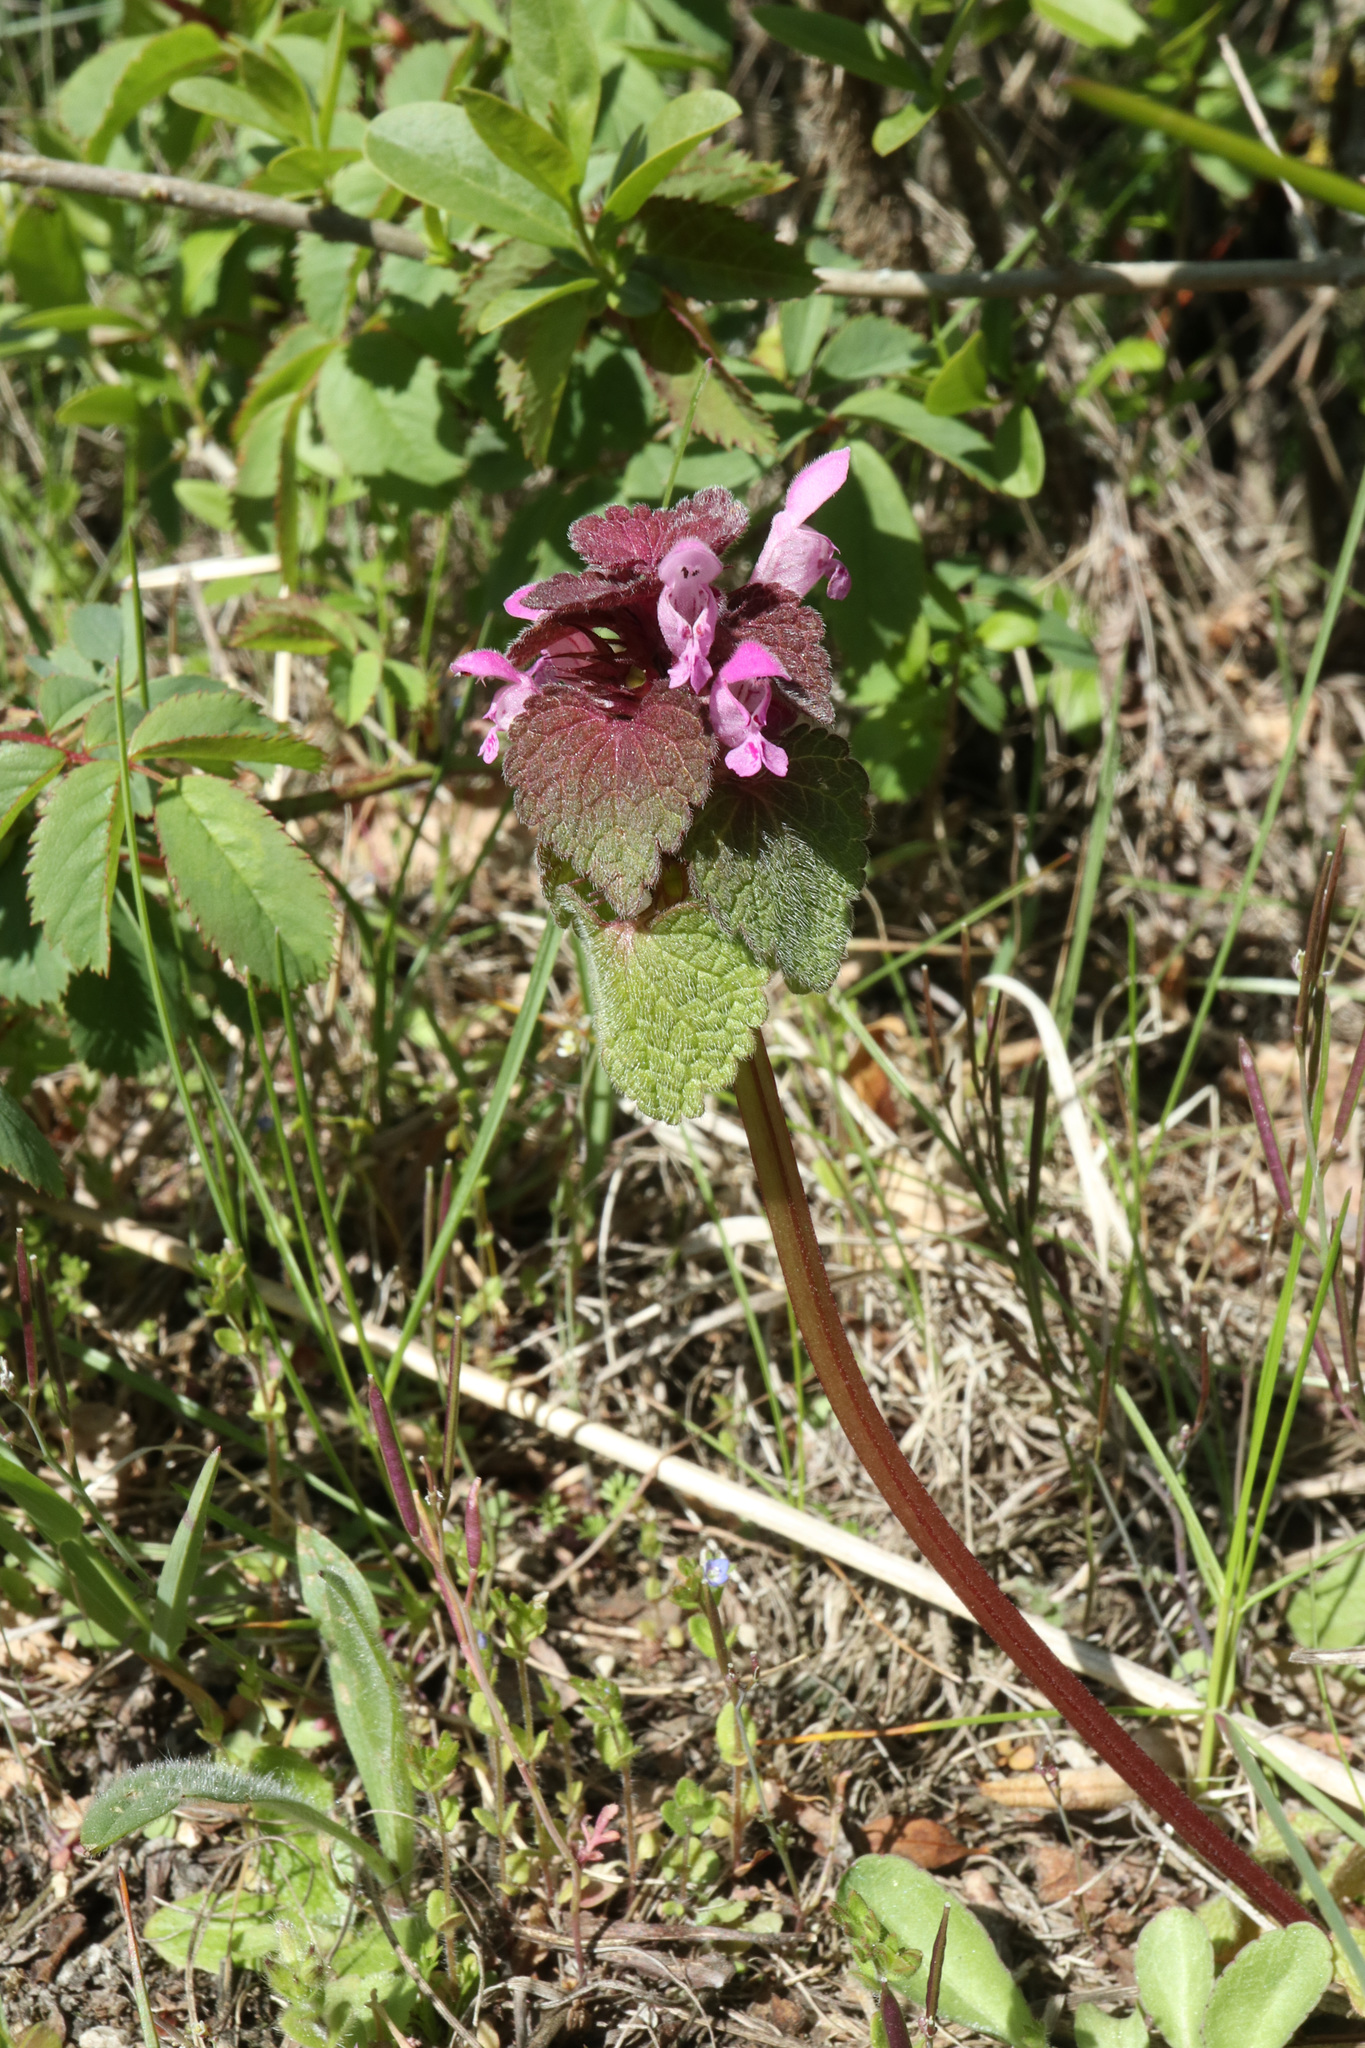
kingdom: Plantae
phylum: Tracheophyta
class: Magnoliopsida
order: Lamiales
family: Lamiaceae
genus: Lamium
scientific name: Lamium purpureum
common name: Red dead-nettle
